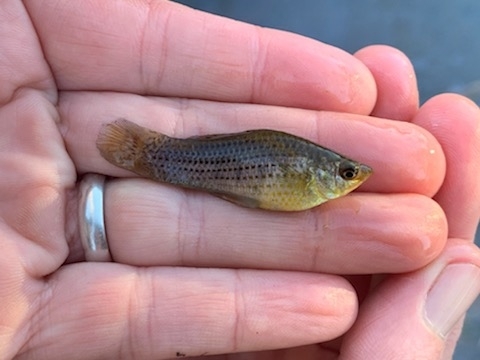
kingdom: Animalia
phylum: Chordata
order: Cyprinodontiformes
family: Poeciliidae
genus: Poecilia
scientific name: Poecilia latipinna
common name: Sailfin molly
